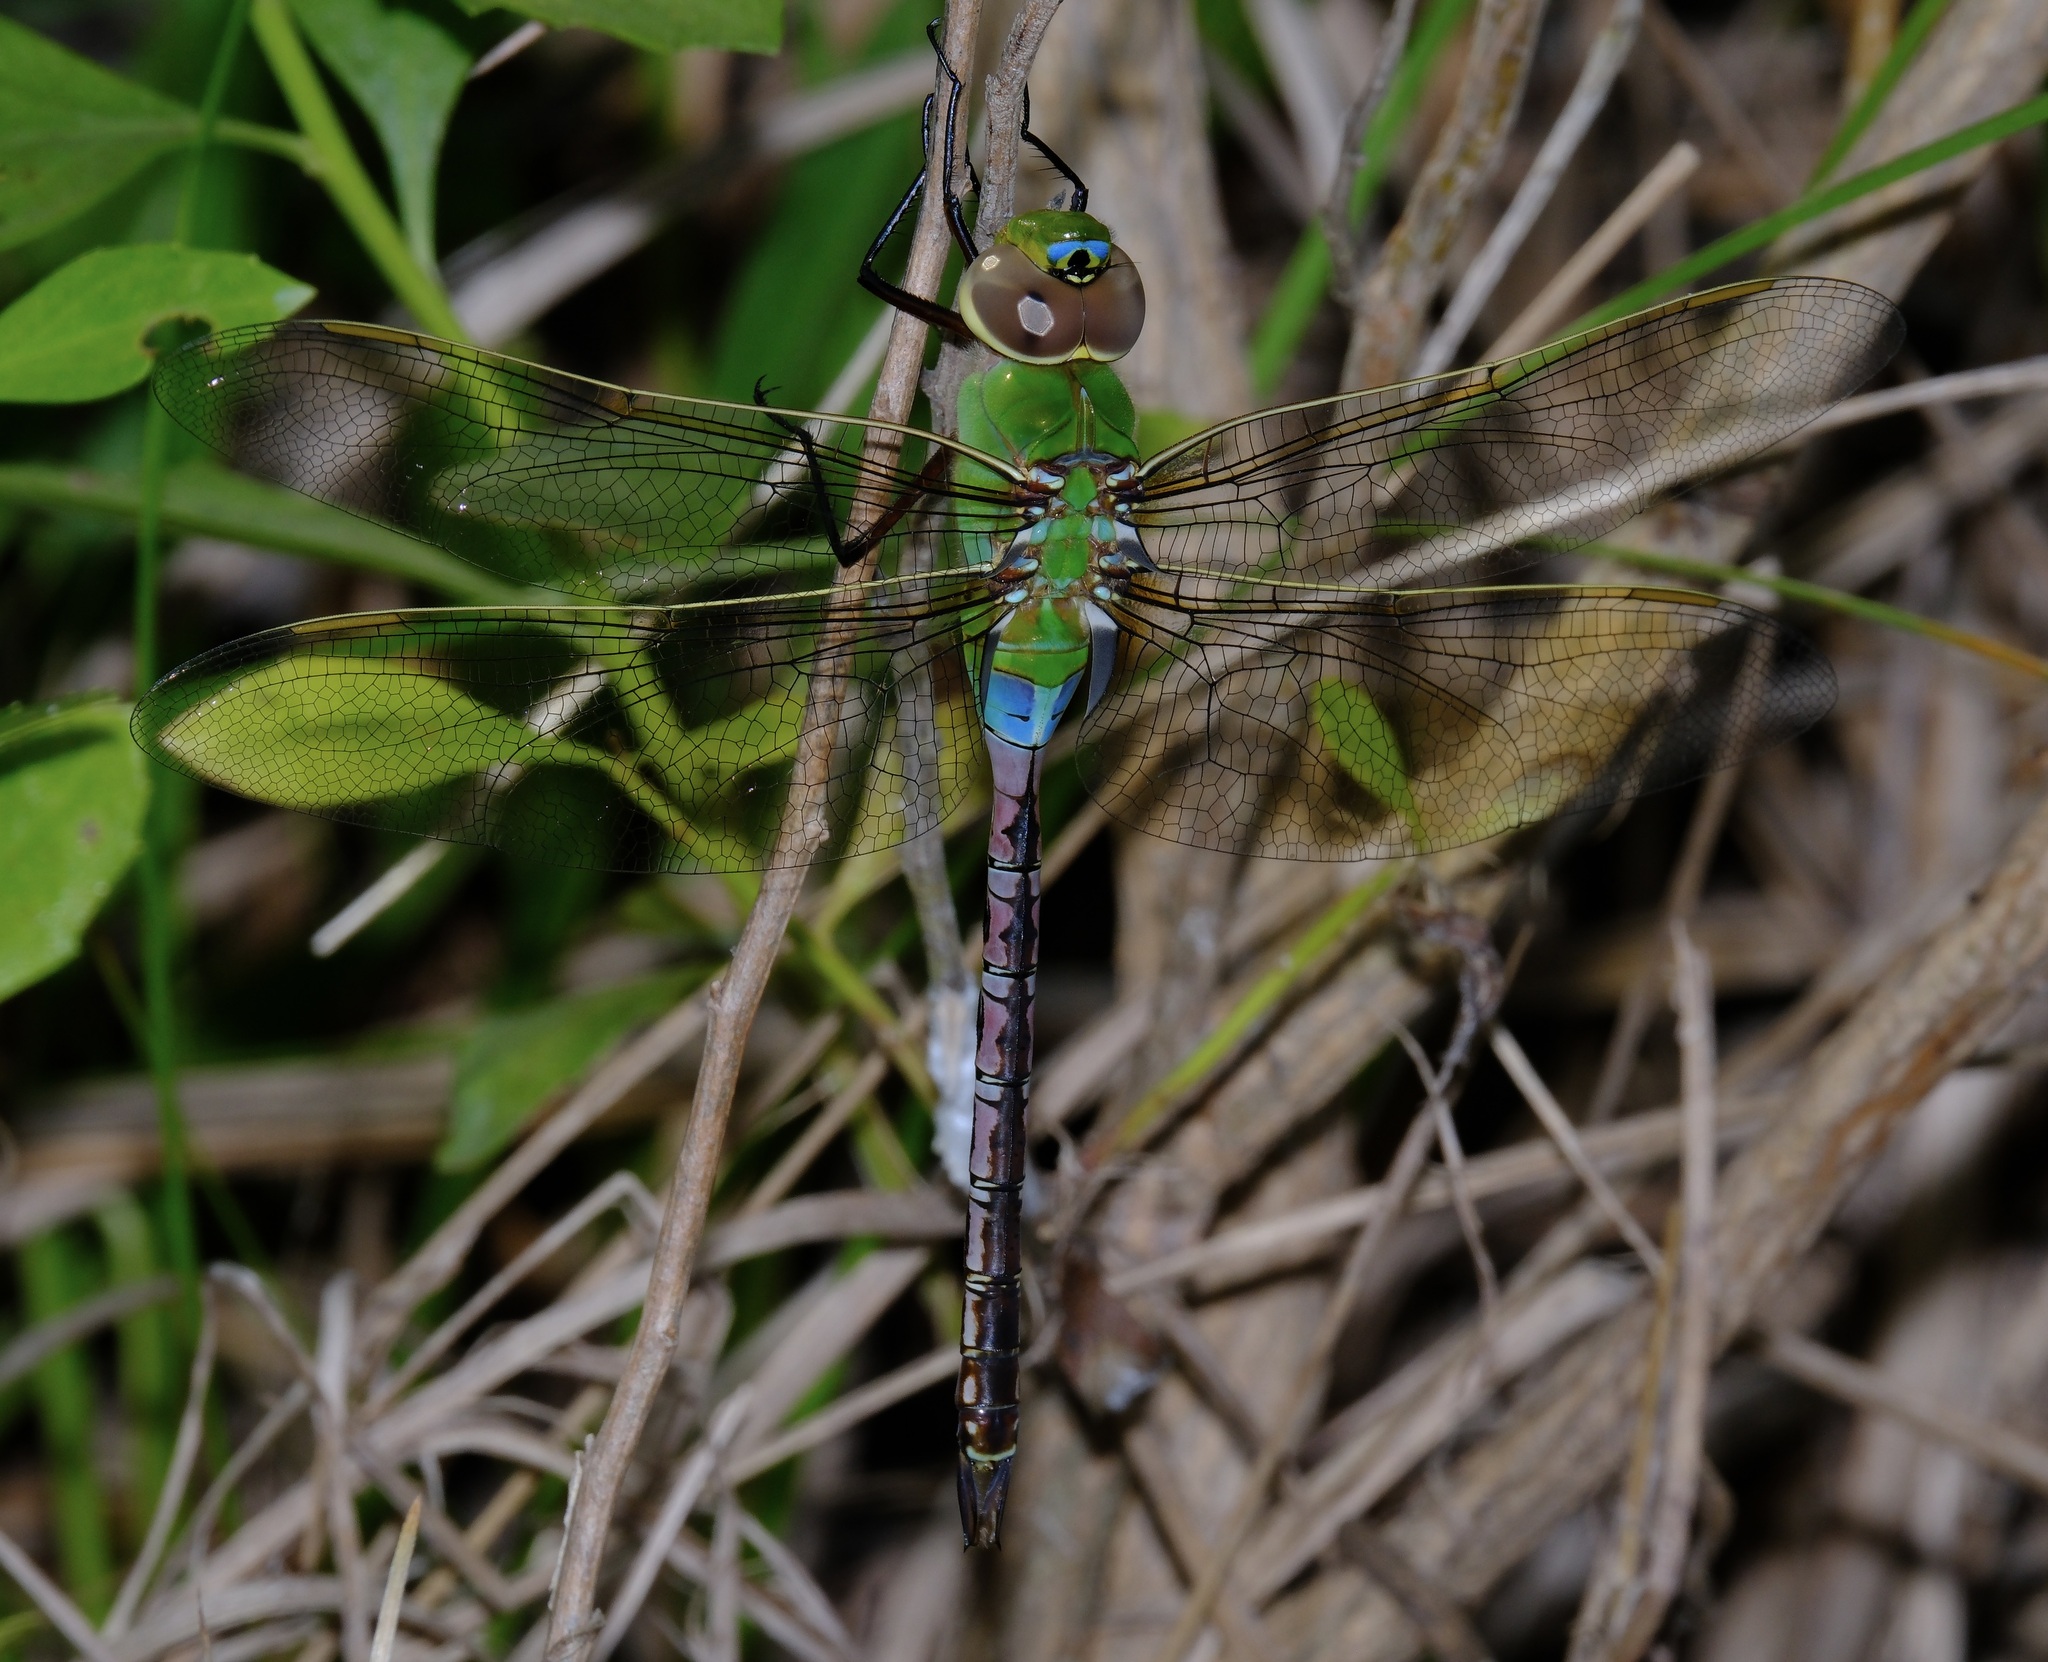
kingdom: Animalia
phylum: Arthropoda
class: Insecta
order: Odonata
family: Aeshnidae
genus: Anax
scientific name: Anax junius
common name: Common green darner
